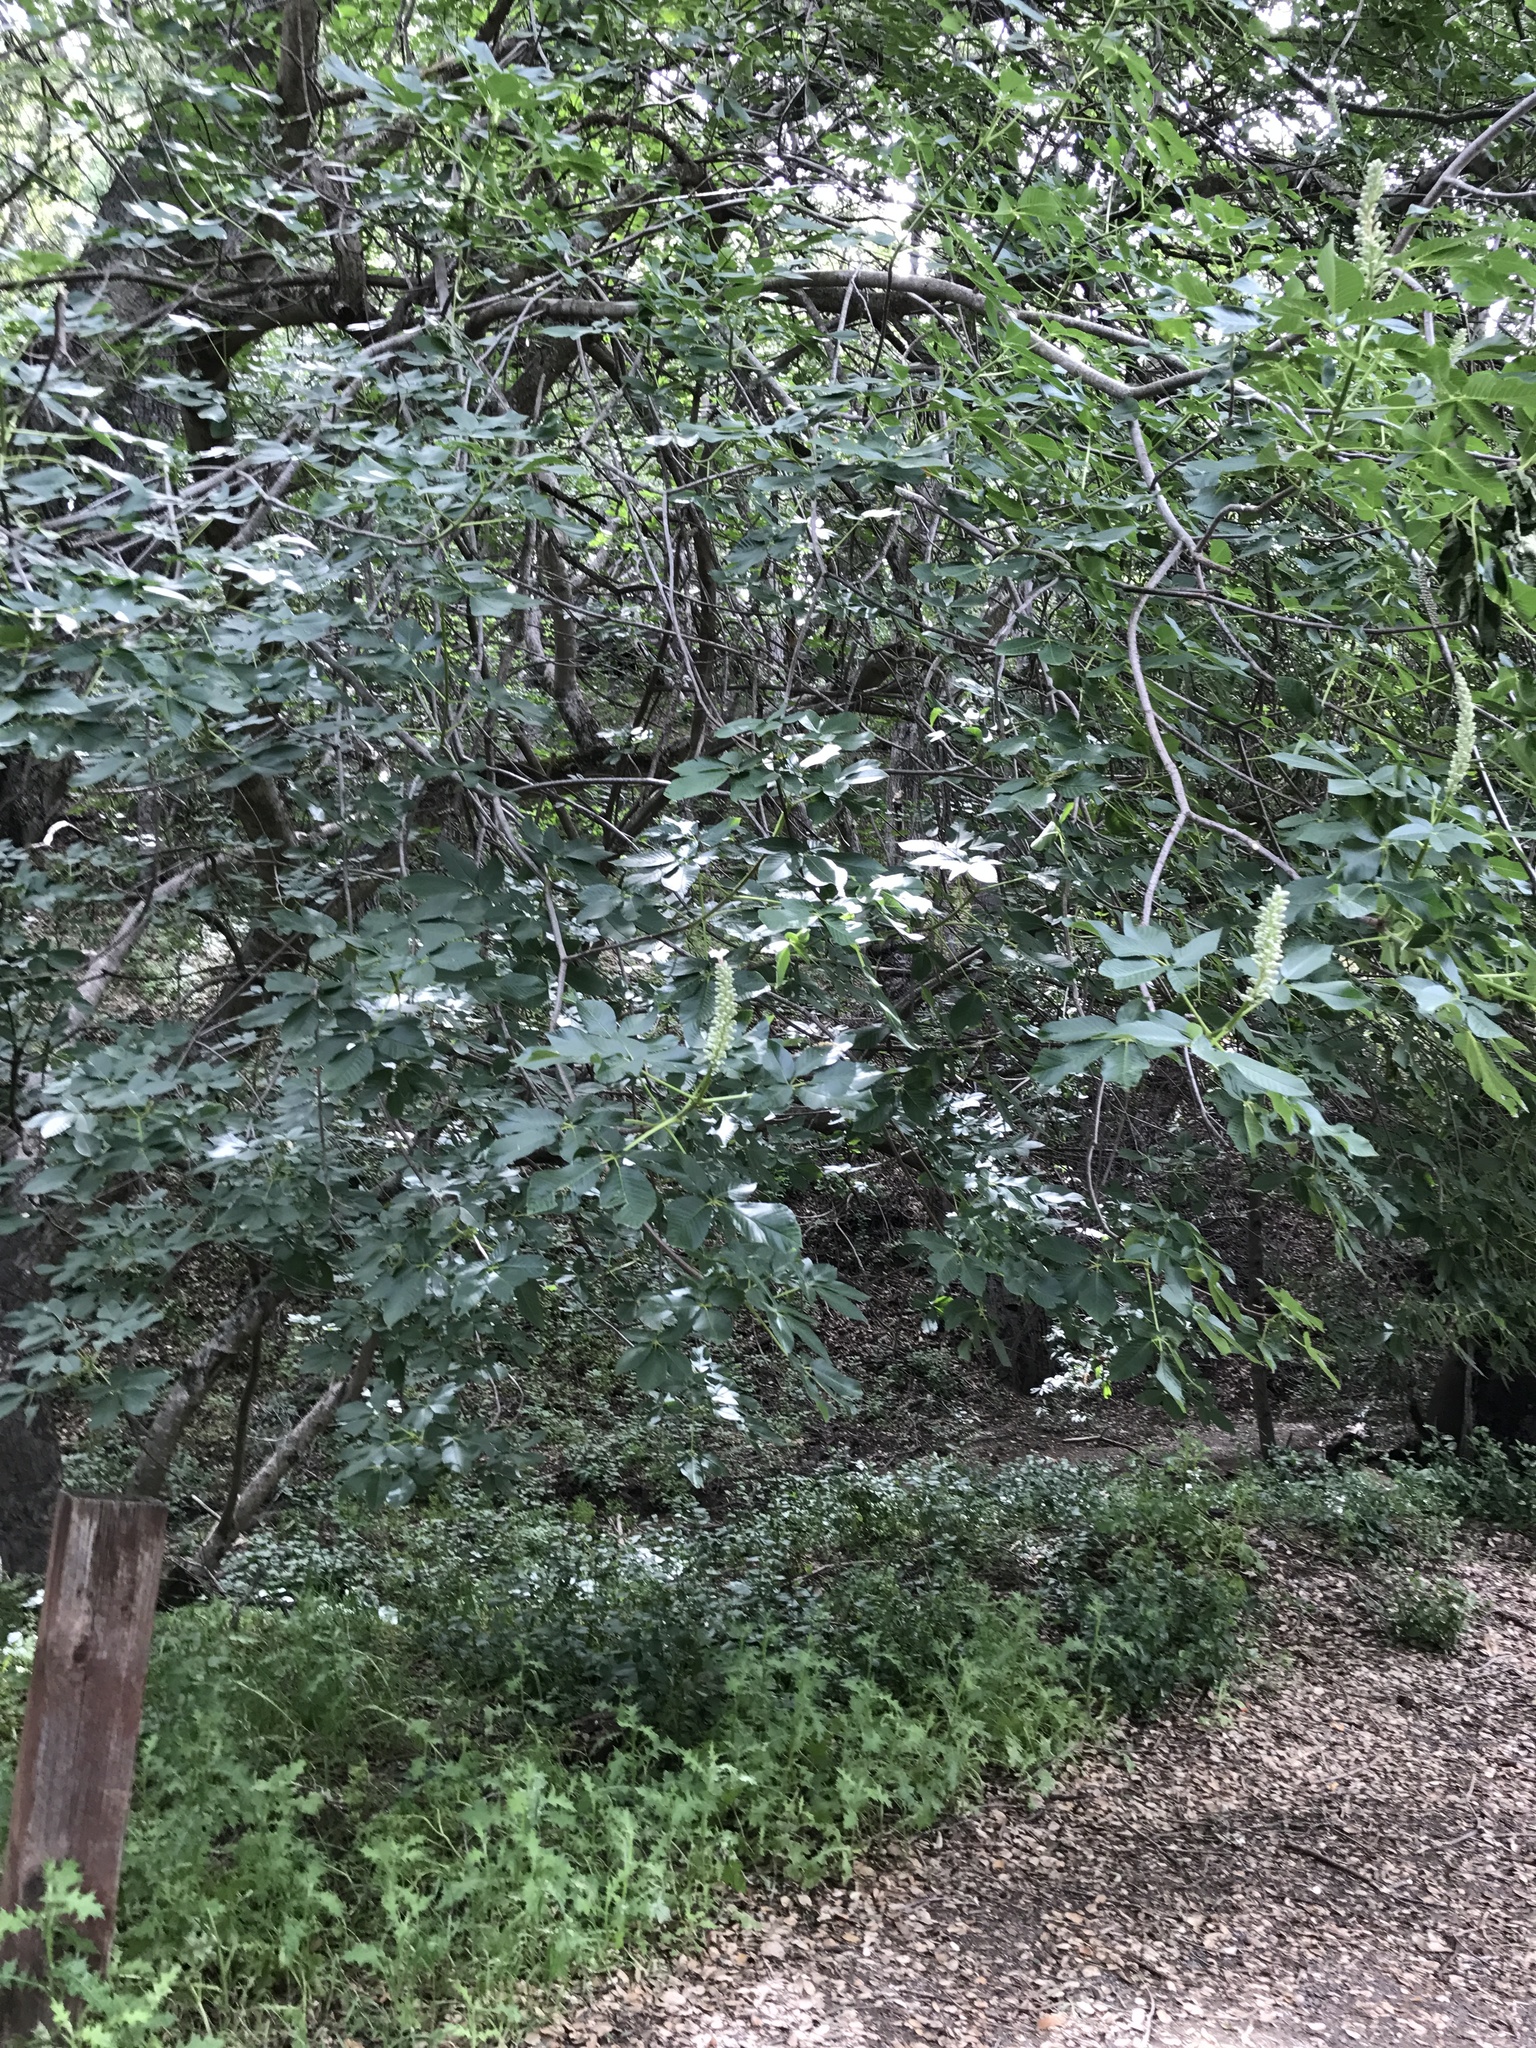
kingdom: Plantae
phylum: Tracheophyta
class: Magnoliopsida
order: Sapindales
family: Sapindaceae
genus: Aesculus
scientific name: Aesculus californica
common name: California buckeye
